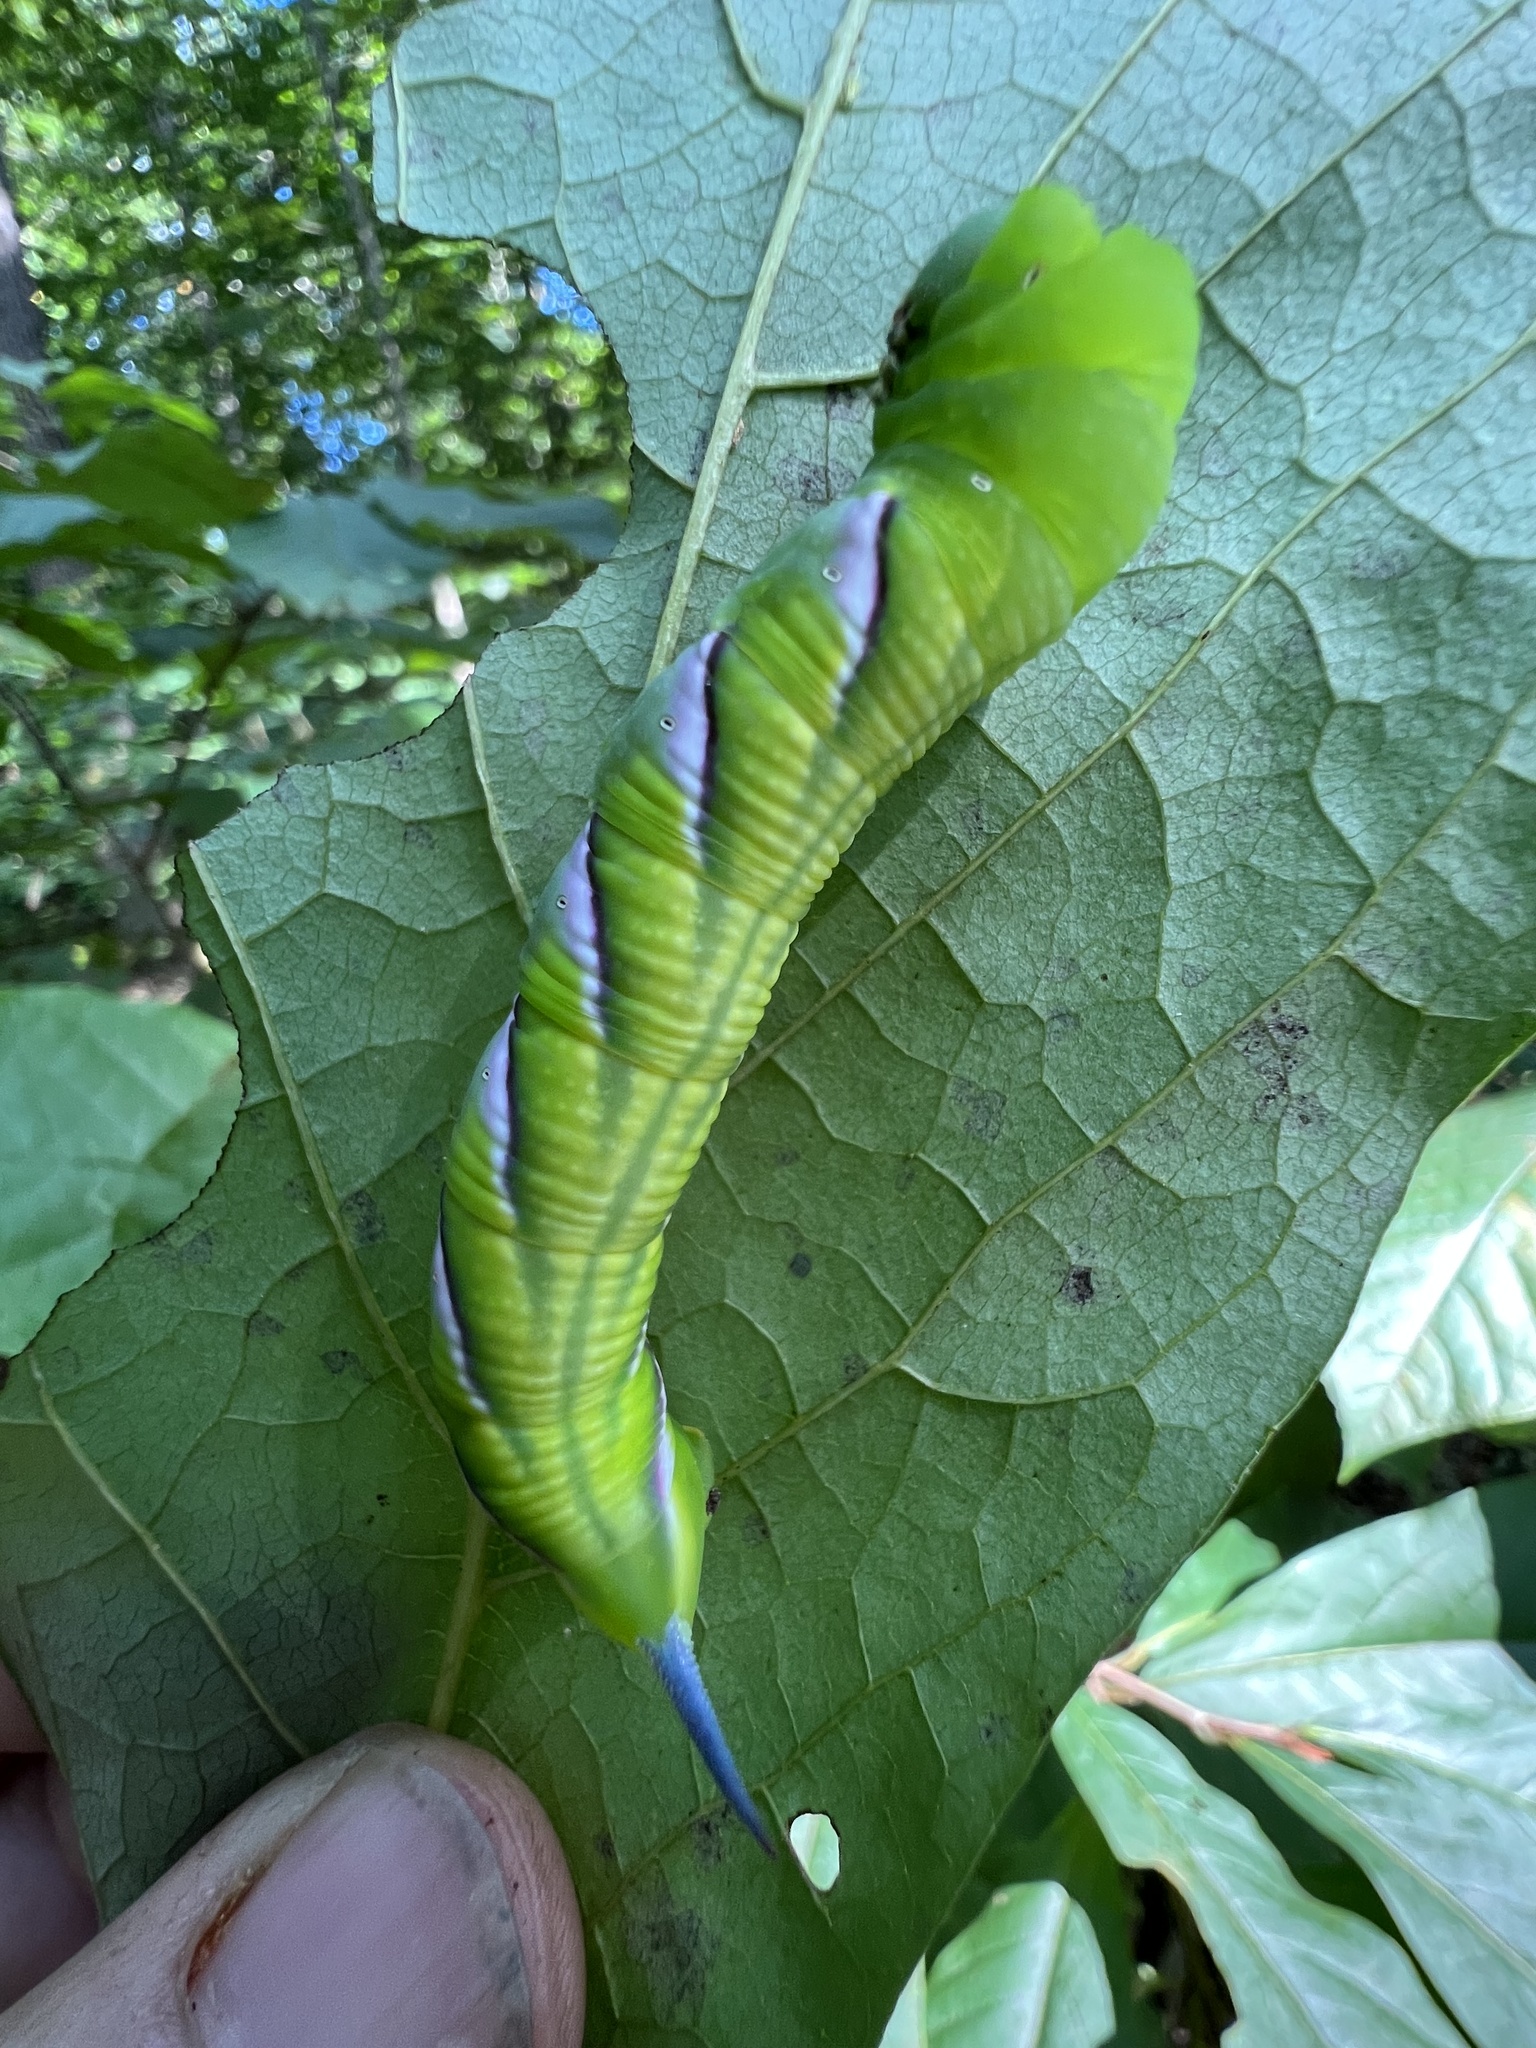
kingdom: Animalia
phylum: Arthropoda
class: Insecta
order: Lepidoptera
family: Sphingidae
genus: Dolba
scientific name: Dolba hyloeus
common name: Pawpaw sphinx
